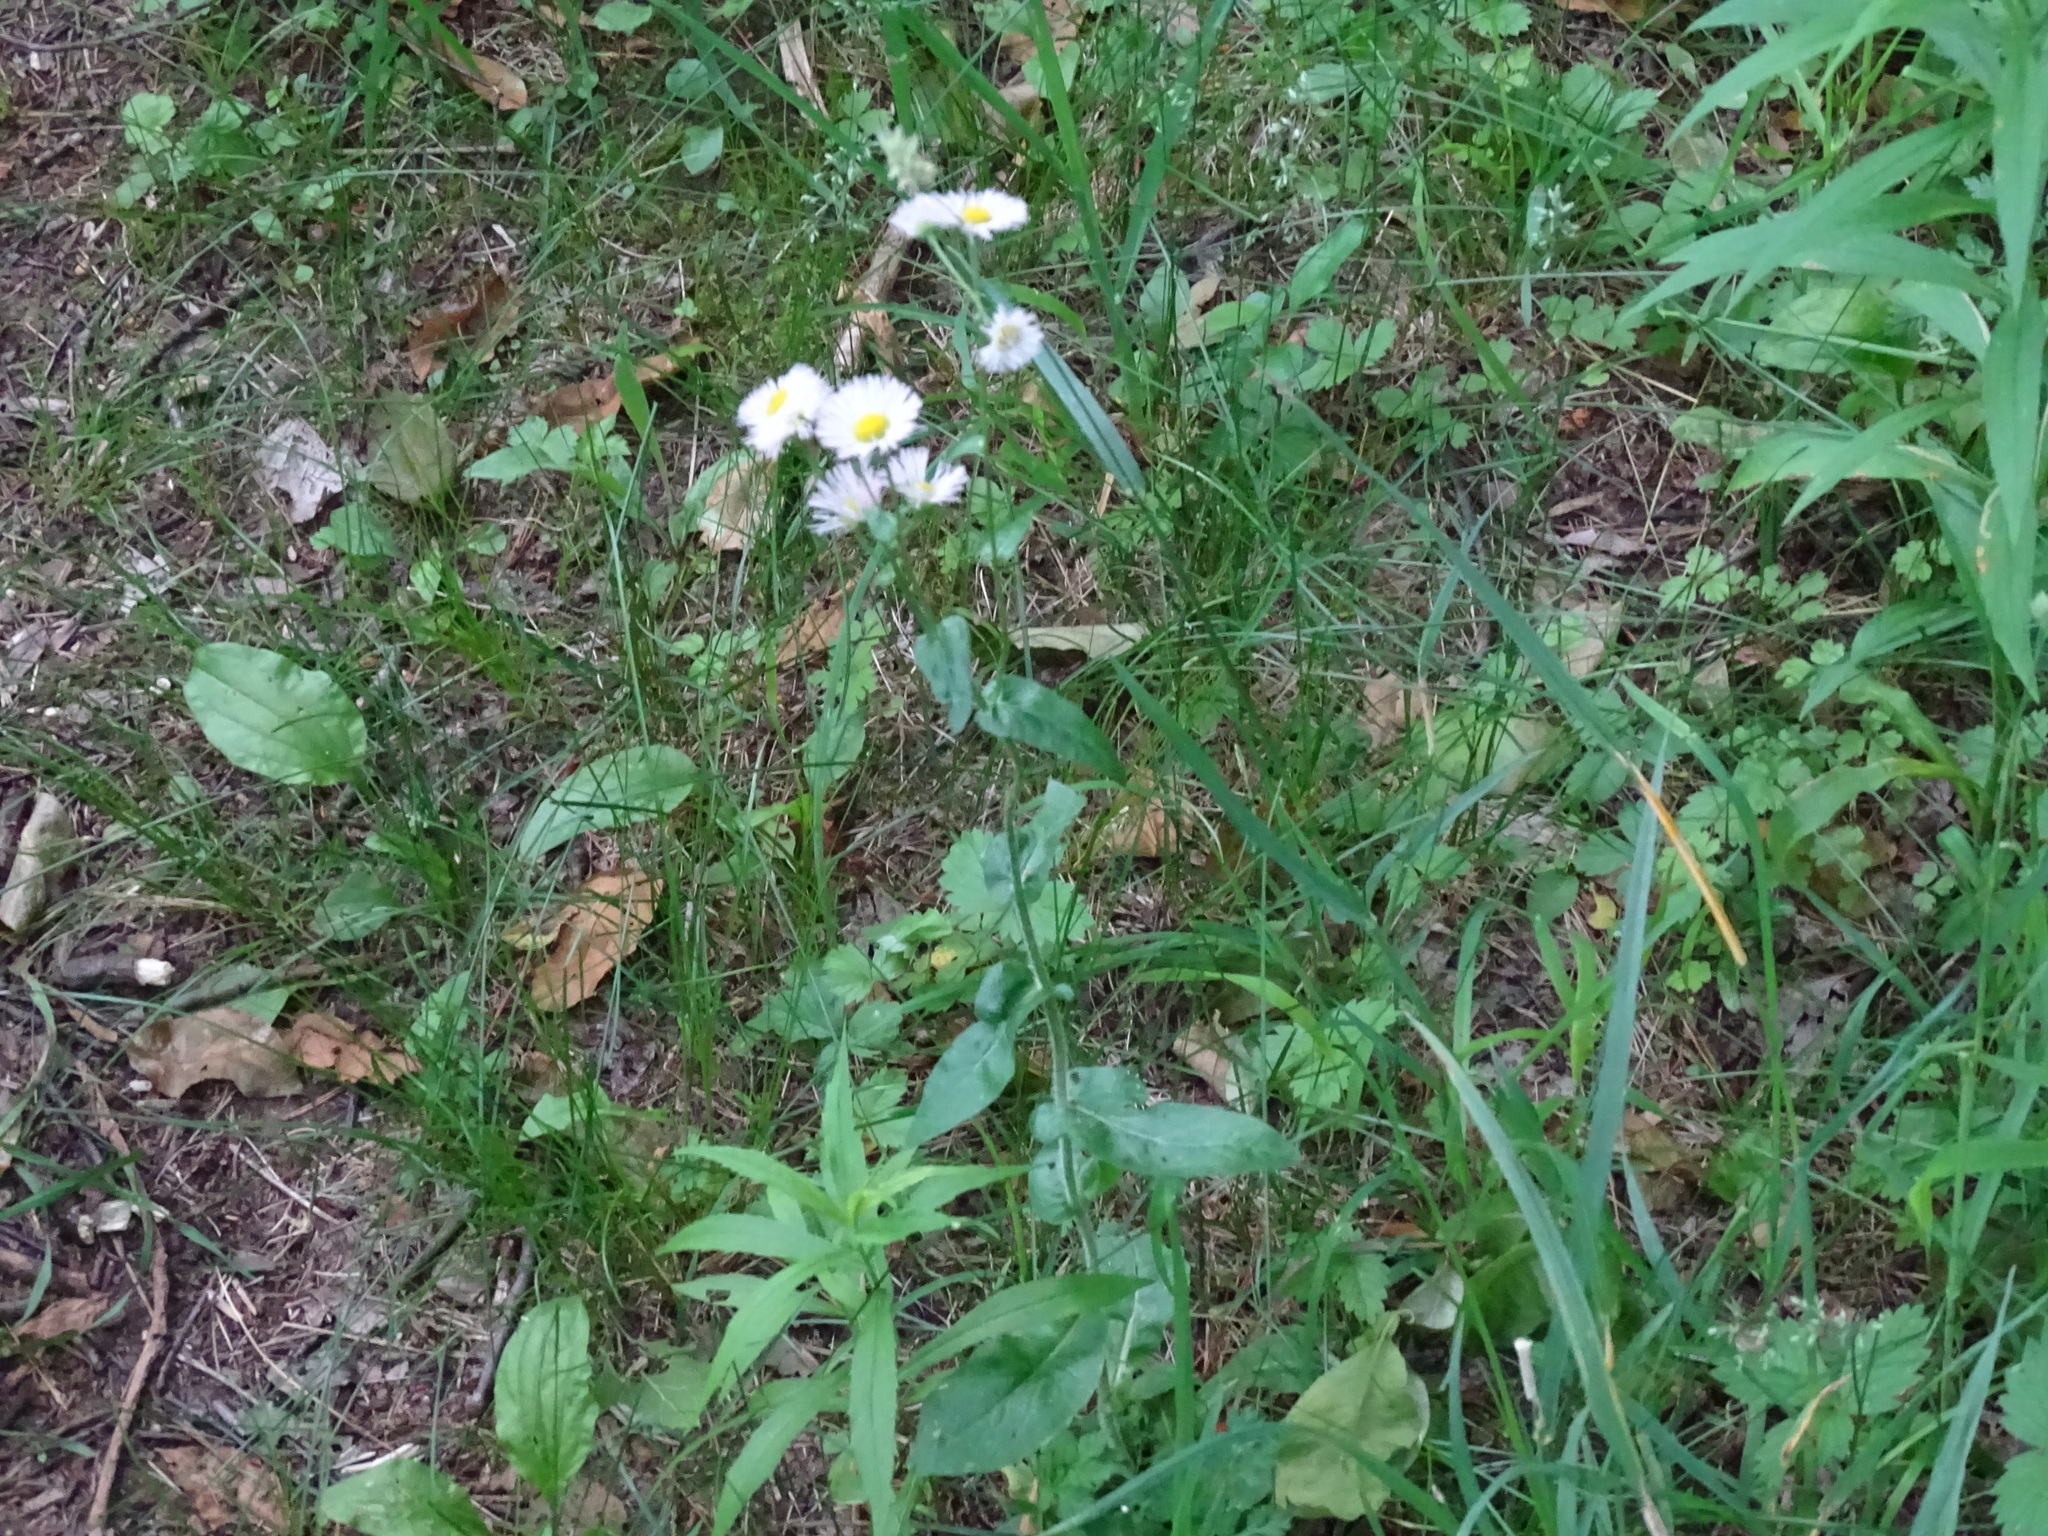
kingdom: Plantae
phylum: Tracheophyta
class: Magnoliopsida
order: Asterales
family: Asteraceae
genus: Erigeron
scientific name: Erigeron philadelphicus
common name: Robin's-plantain
